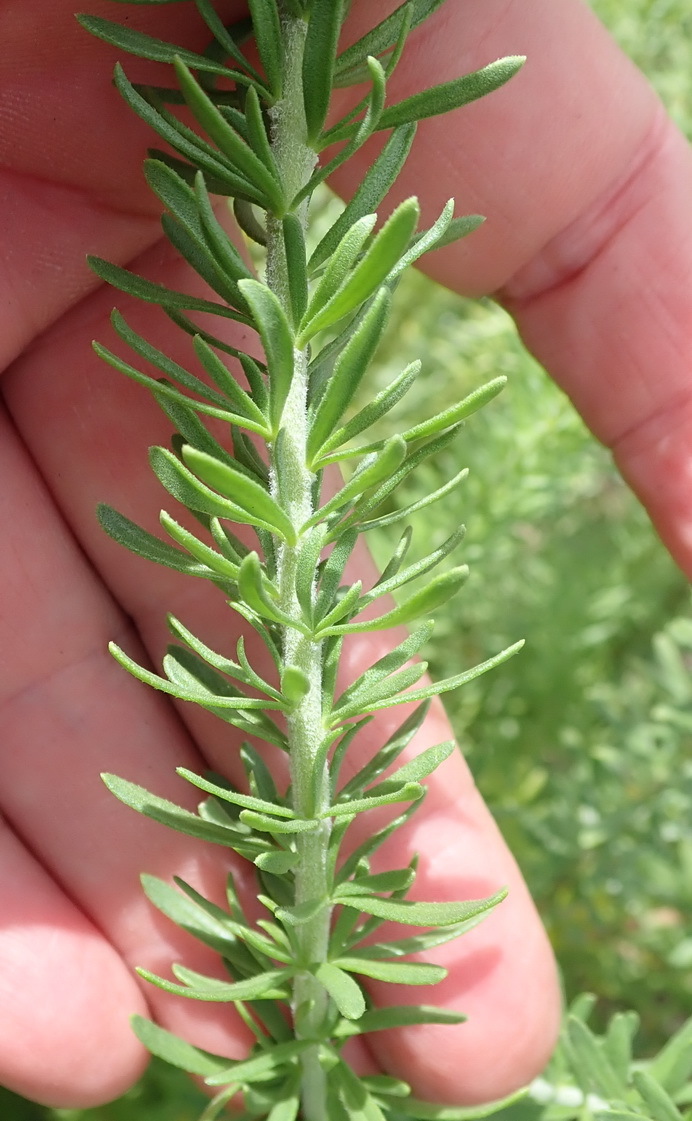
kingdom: Plantae
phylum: Tracheophyta
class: Magnoliopsida
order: Lamiales
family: Scrophulariaceae
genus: Selago
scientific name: Selago cinerea
